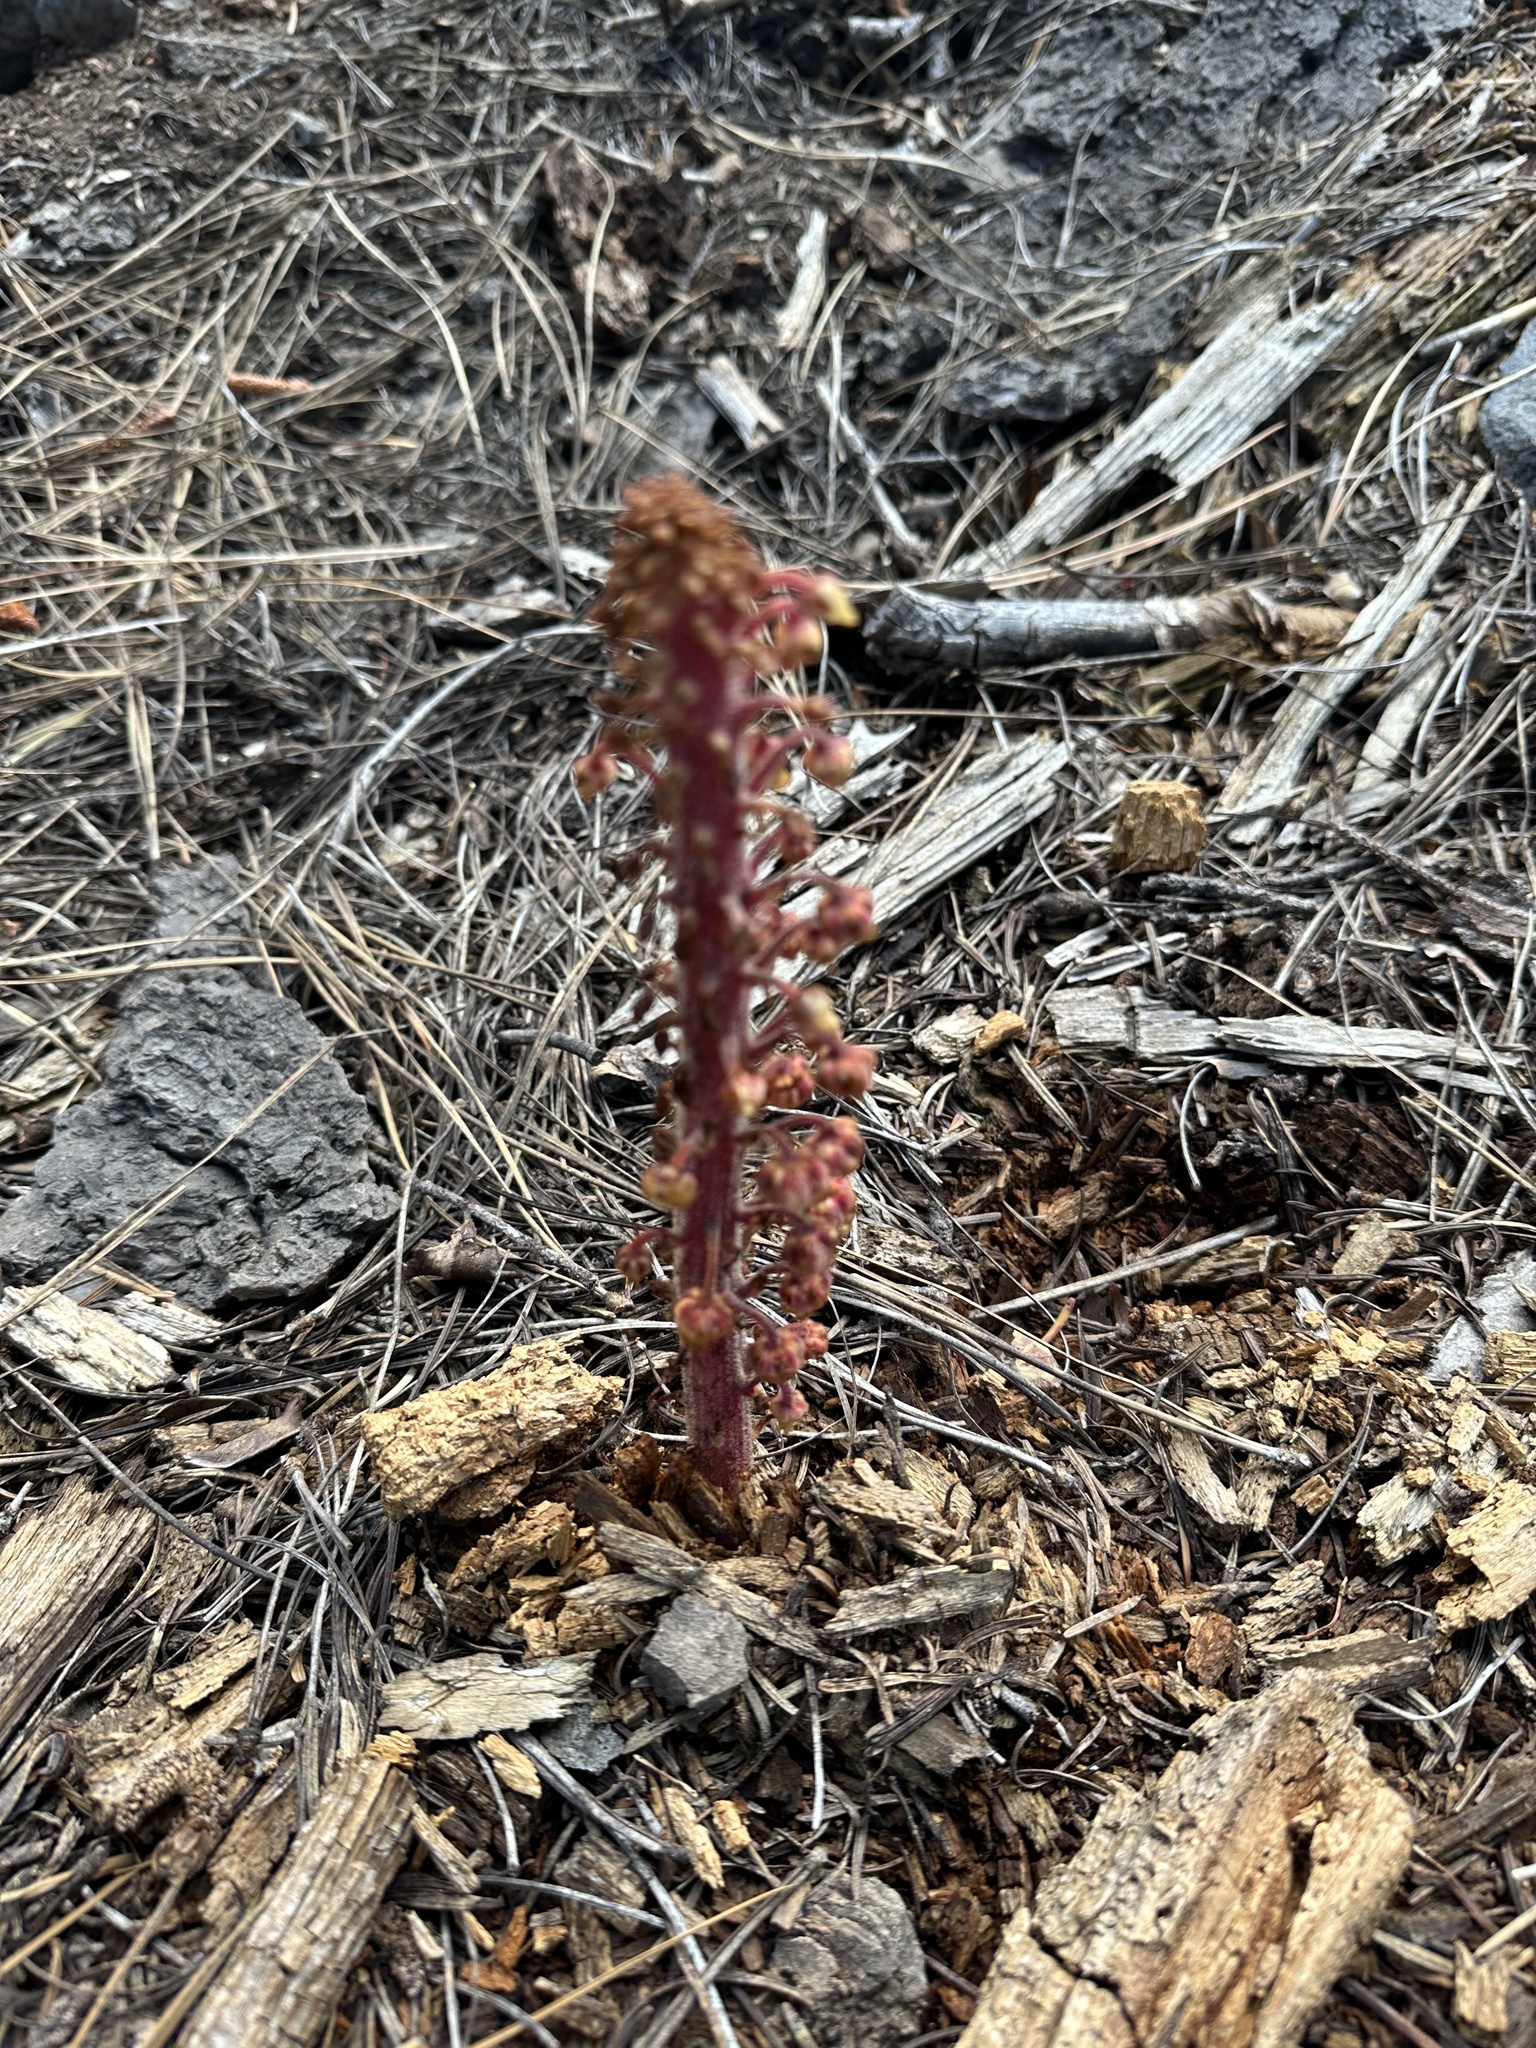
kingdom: Plantae
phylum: Tracheophyta
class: Magnoliopsida
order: Ericales
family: Ericaceae
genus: Pterospora
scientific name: Pterospora andromedea
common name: Giant bird's-nest
